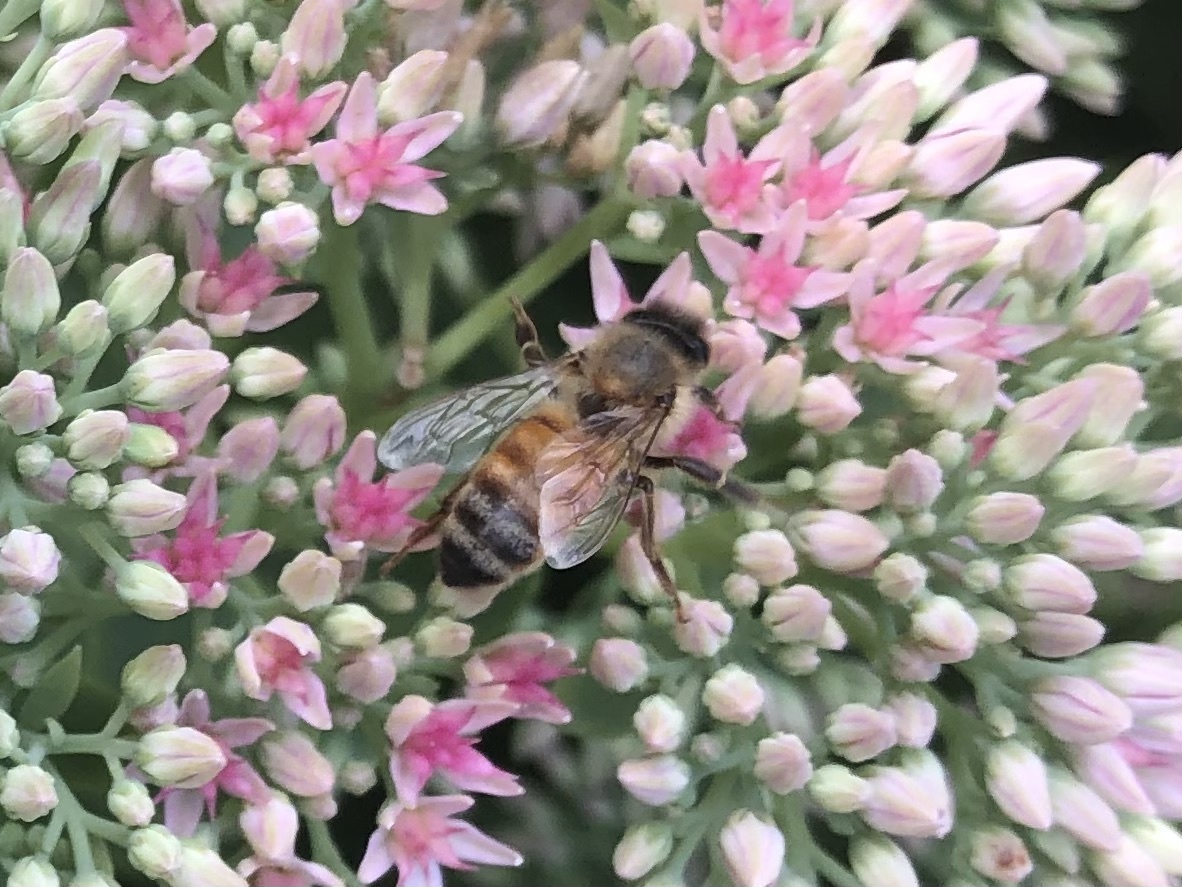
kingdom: Animalia
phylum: Arthropoda
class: Insecta
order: Hymenoptera
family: Apidae
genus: Apis
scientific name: Apis mellifera
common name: Honey bee
